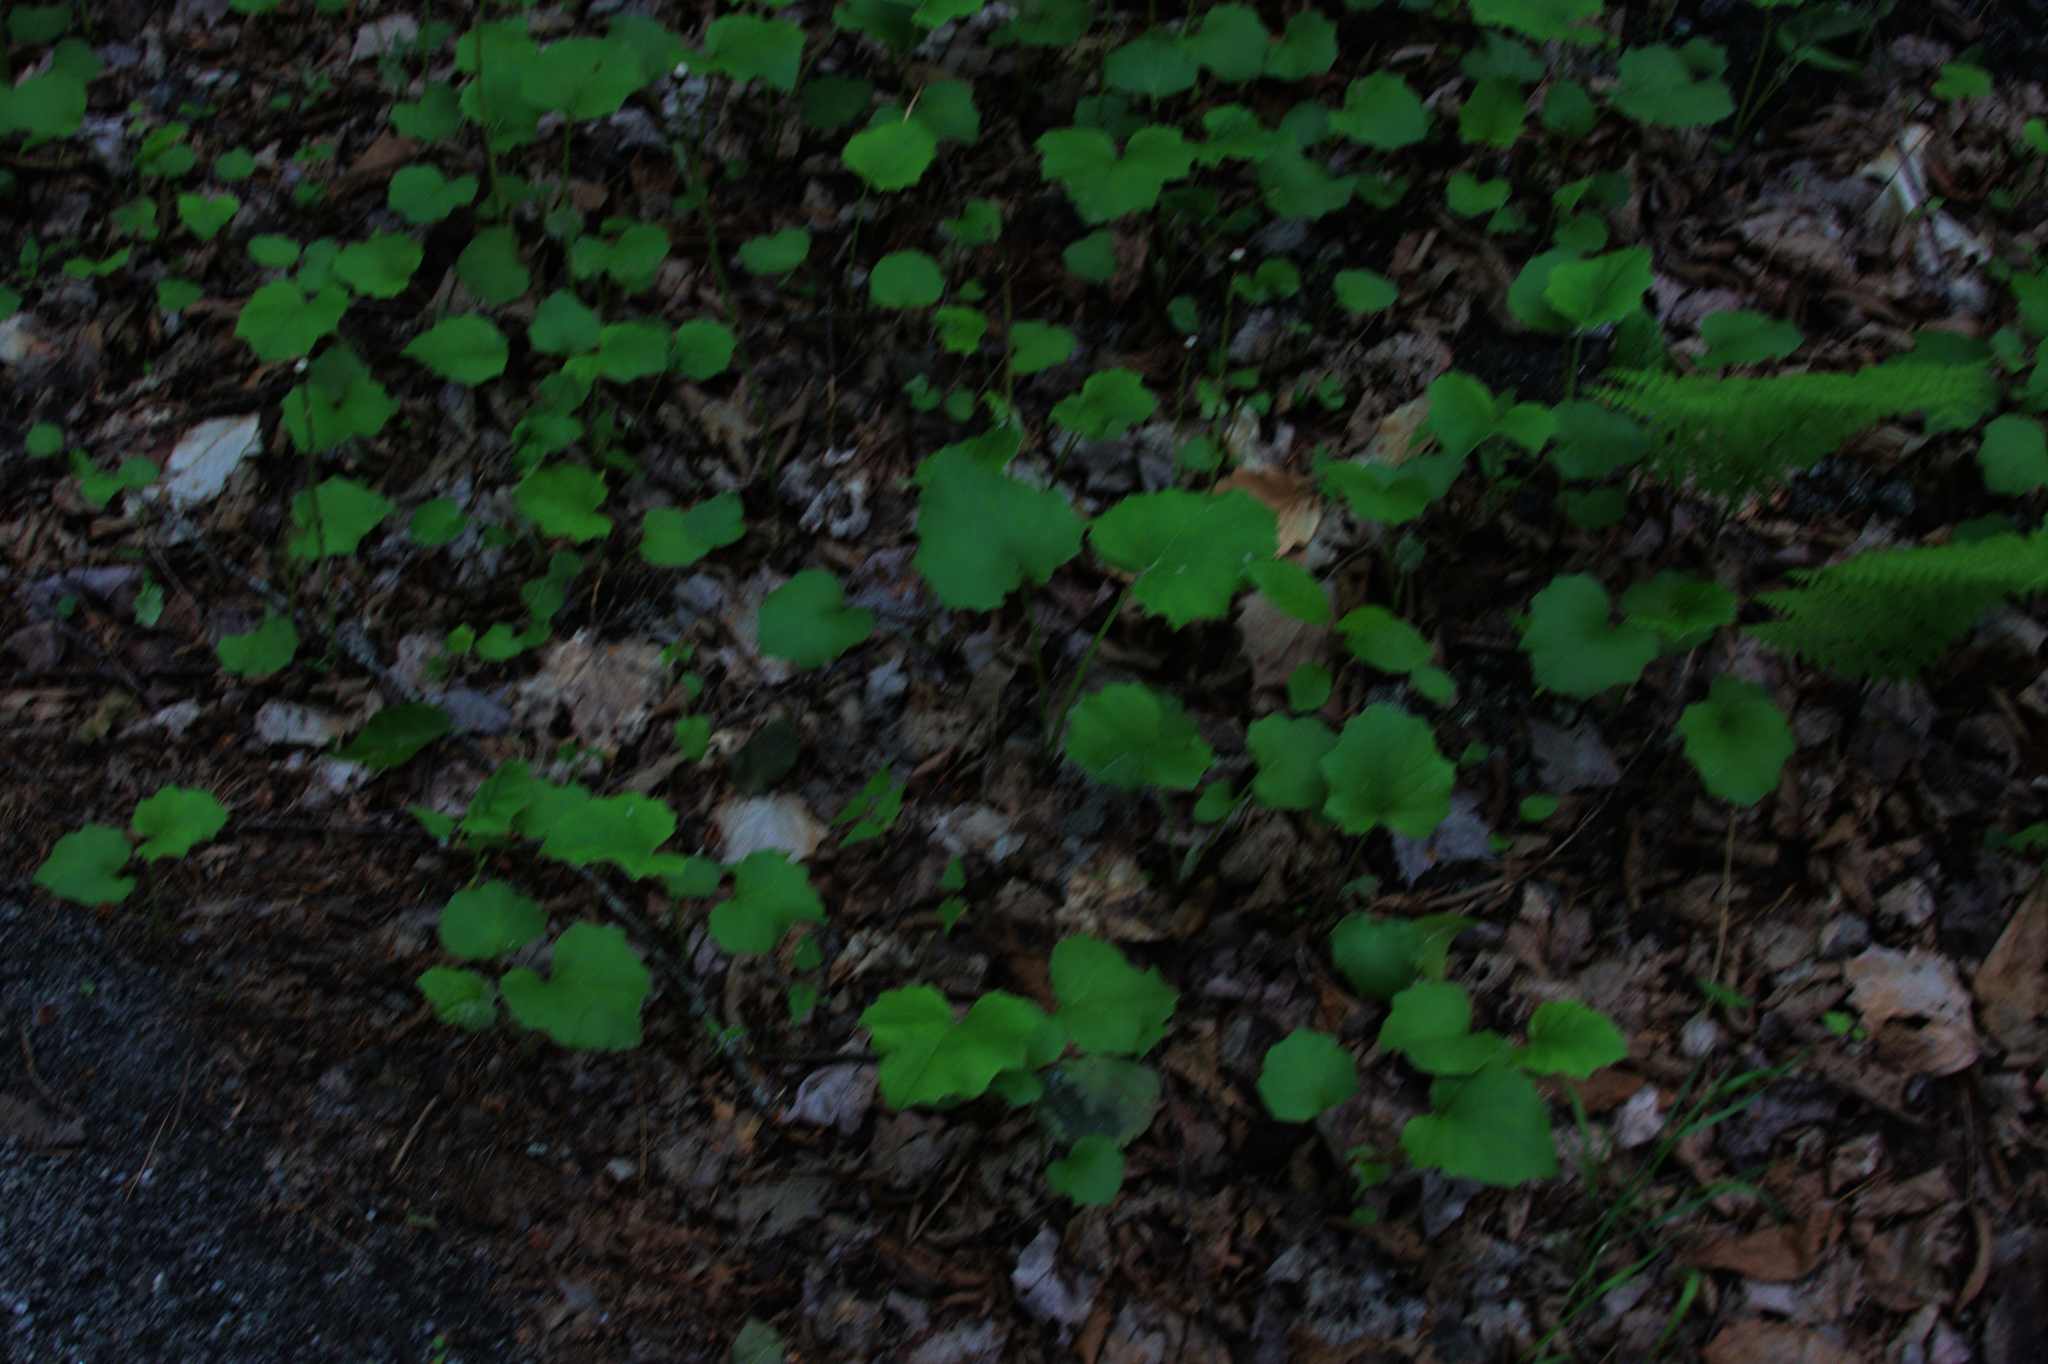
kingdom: Plantae
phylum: Tracheophyta
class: Magnoliopsida
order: Asterales
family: Asteraceae
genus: Tussilago
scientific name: Tussilago farfara
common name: Coltsfoot
